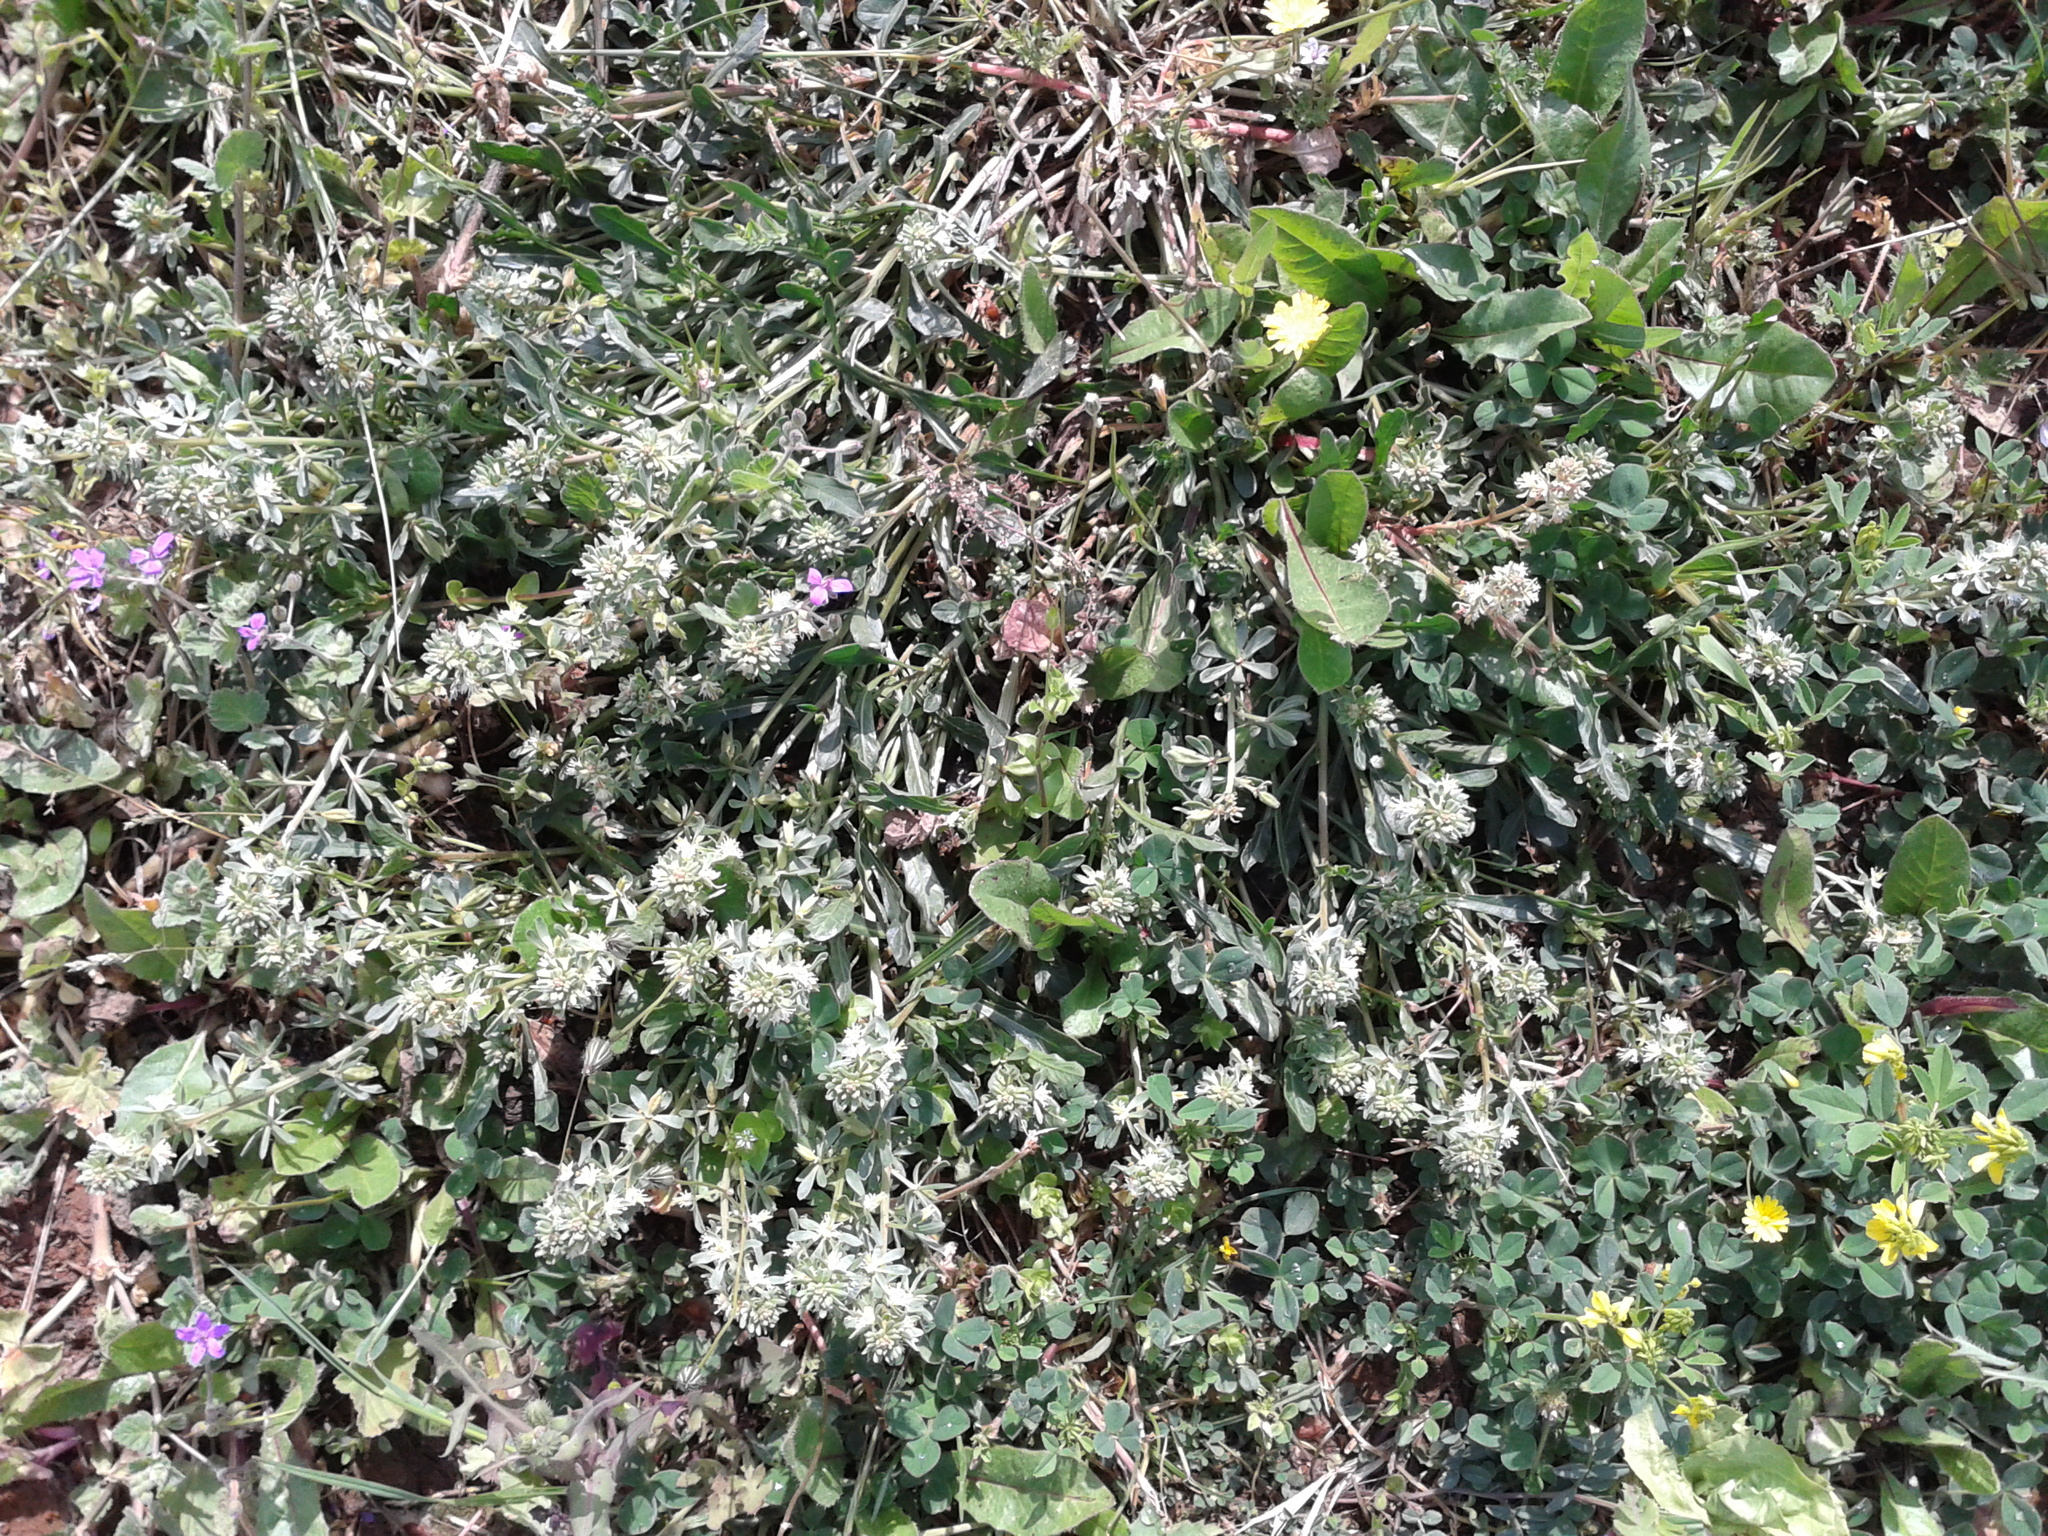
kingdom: Plantae
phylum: Tracheophyta
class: Magnoliopsida
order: Brassicales
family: Resedaceae
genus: Reseda
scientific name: Reseda phyteuma
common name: Corn mignonette
